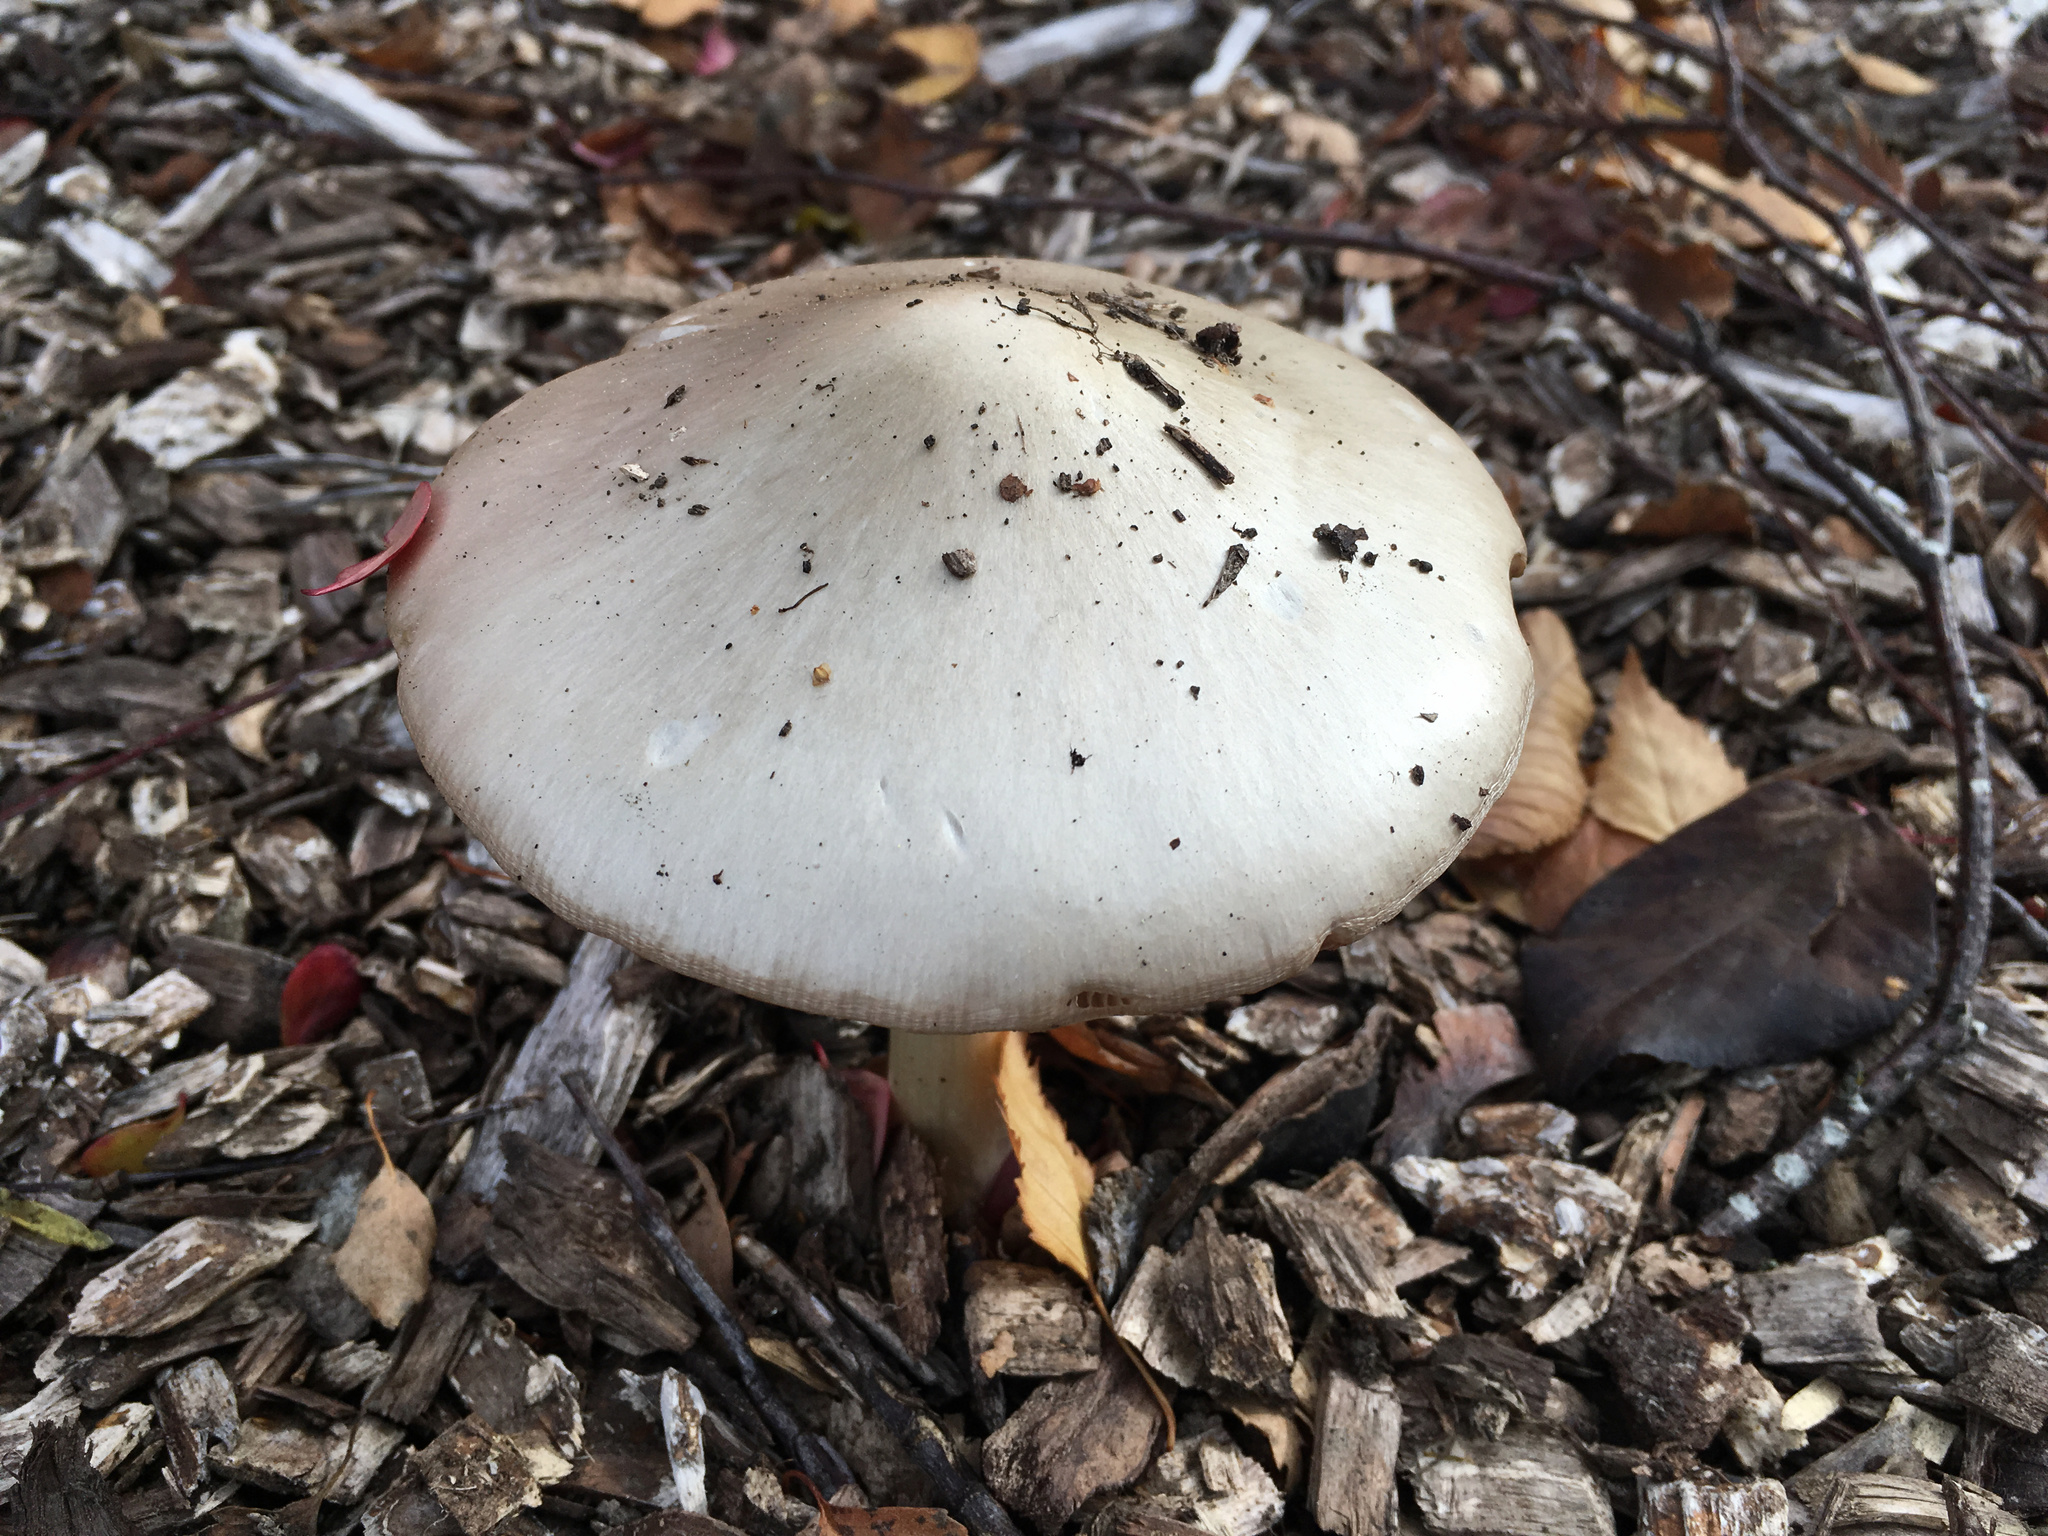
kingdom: Fungi
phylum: Basidiomycota
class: Agaricomycetes
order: Agaricales
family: Pluteaceae
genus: Volvopluteus
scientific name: Volvopluteus gloiocephalus
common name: Stubble rosegill
